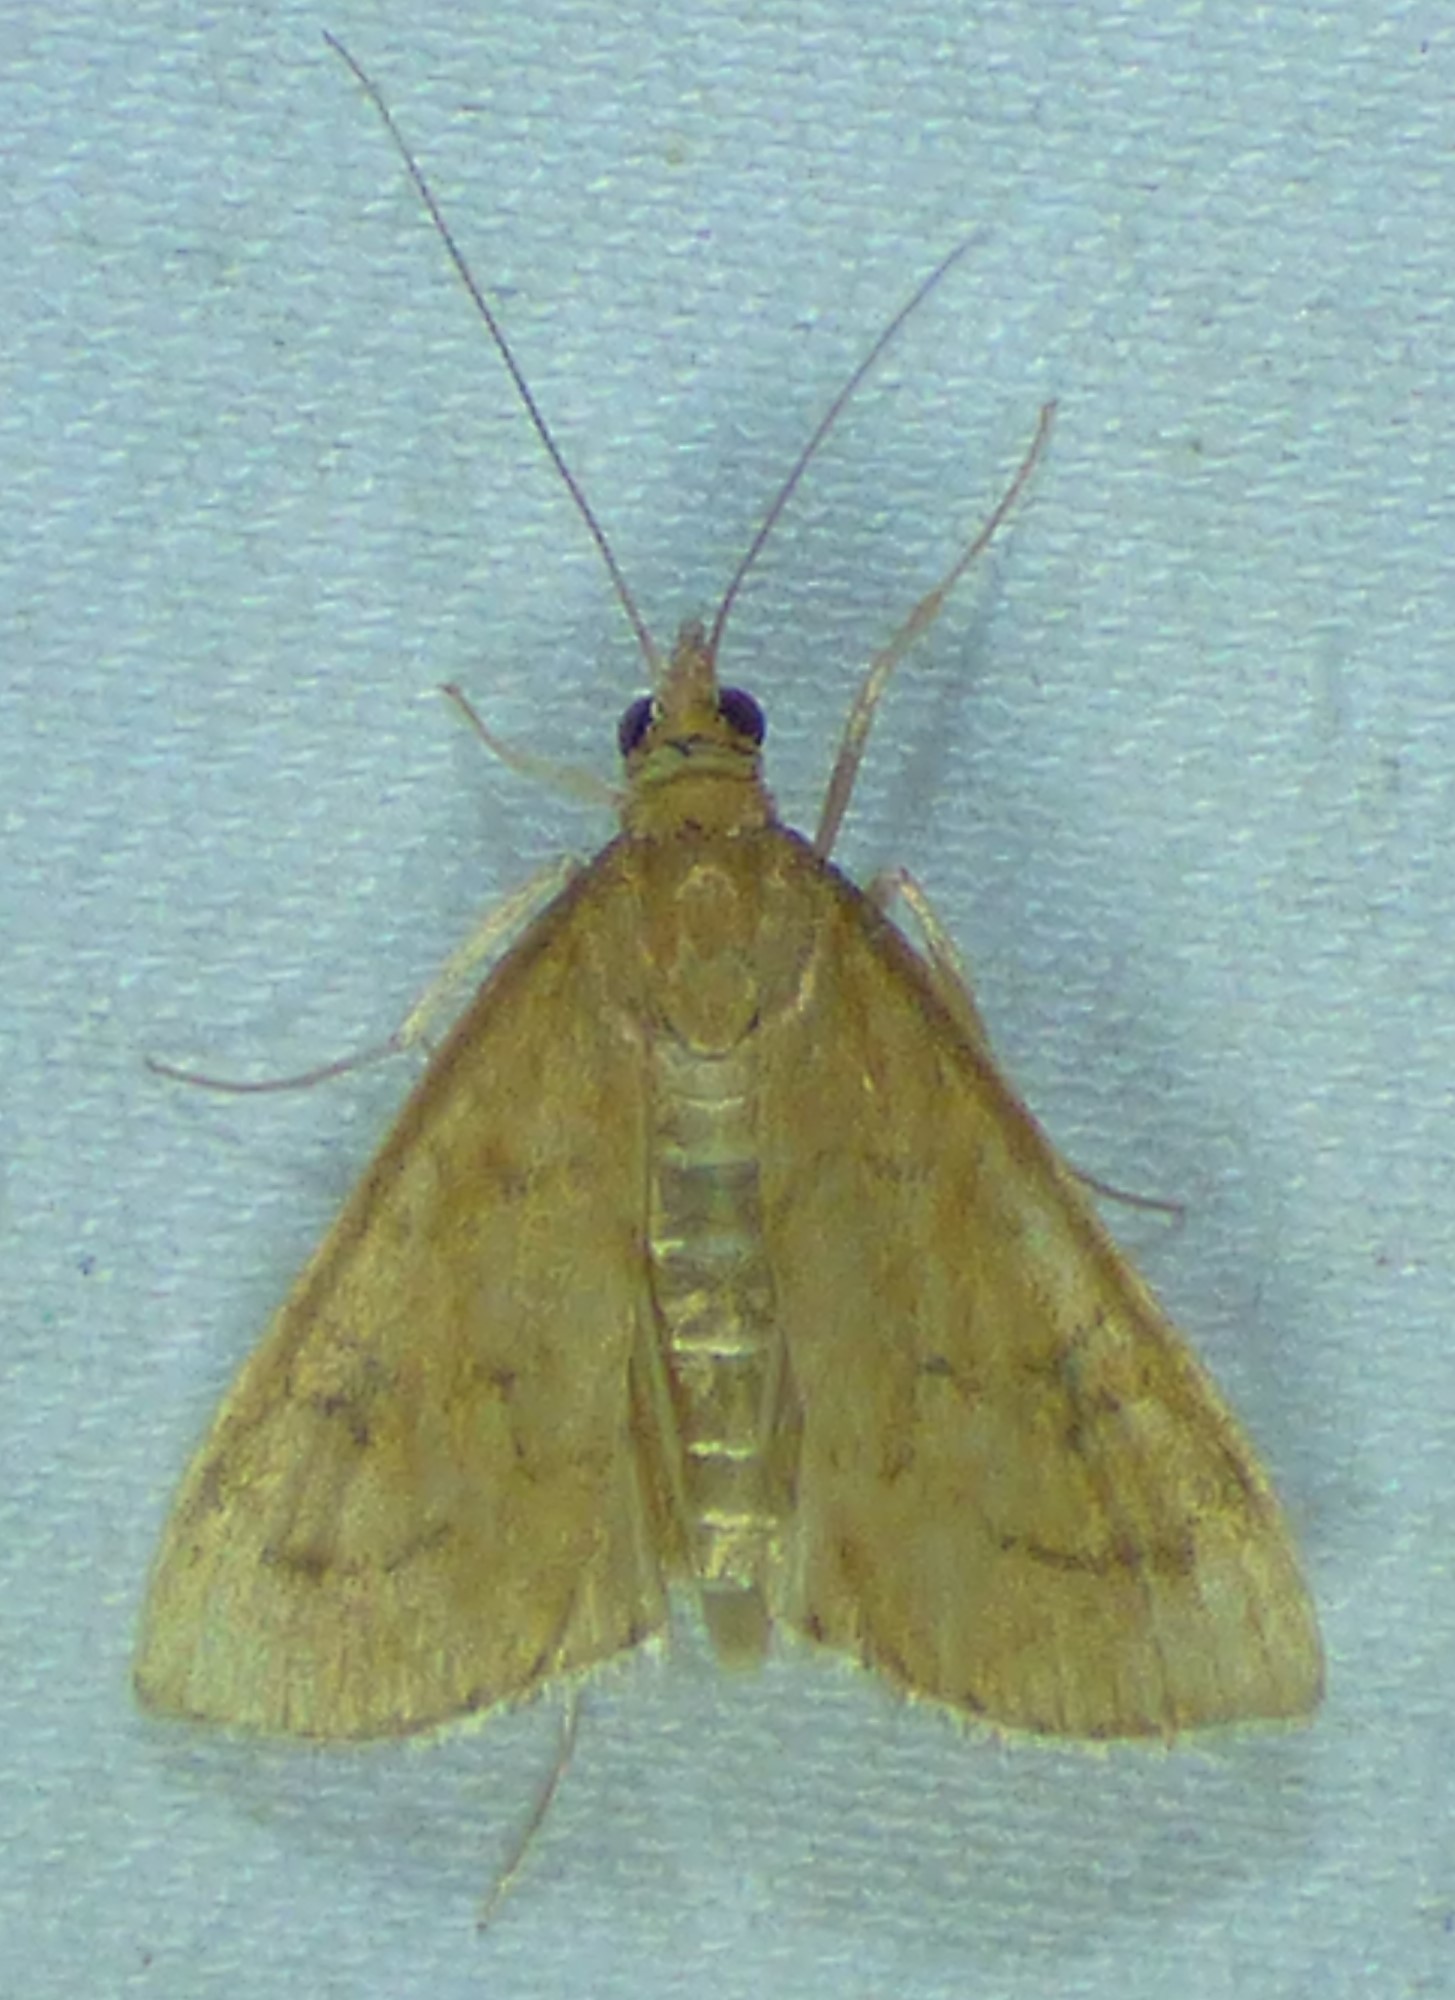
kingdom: Animalia
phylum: Arthropoda
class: Insecta
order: Lepidoptera
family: Crambidae
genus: Udea
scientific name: Udea rubigalis
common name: Celery leaftier moth
